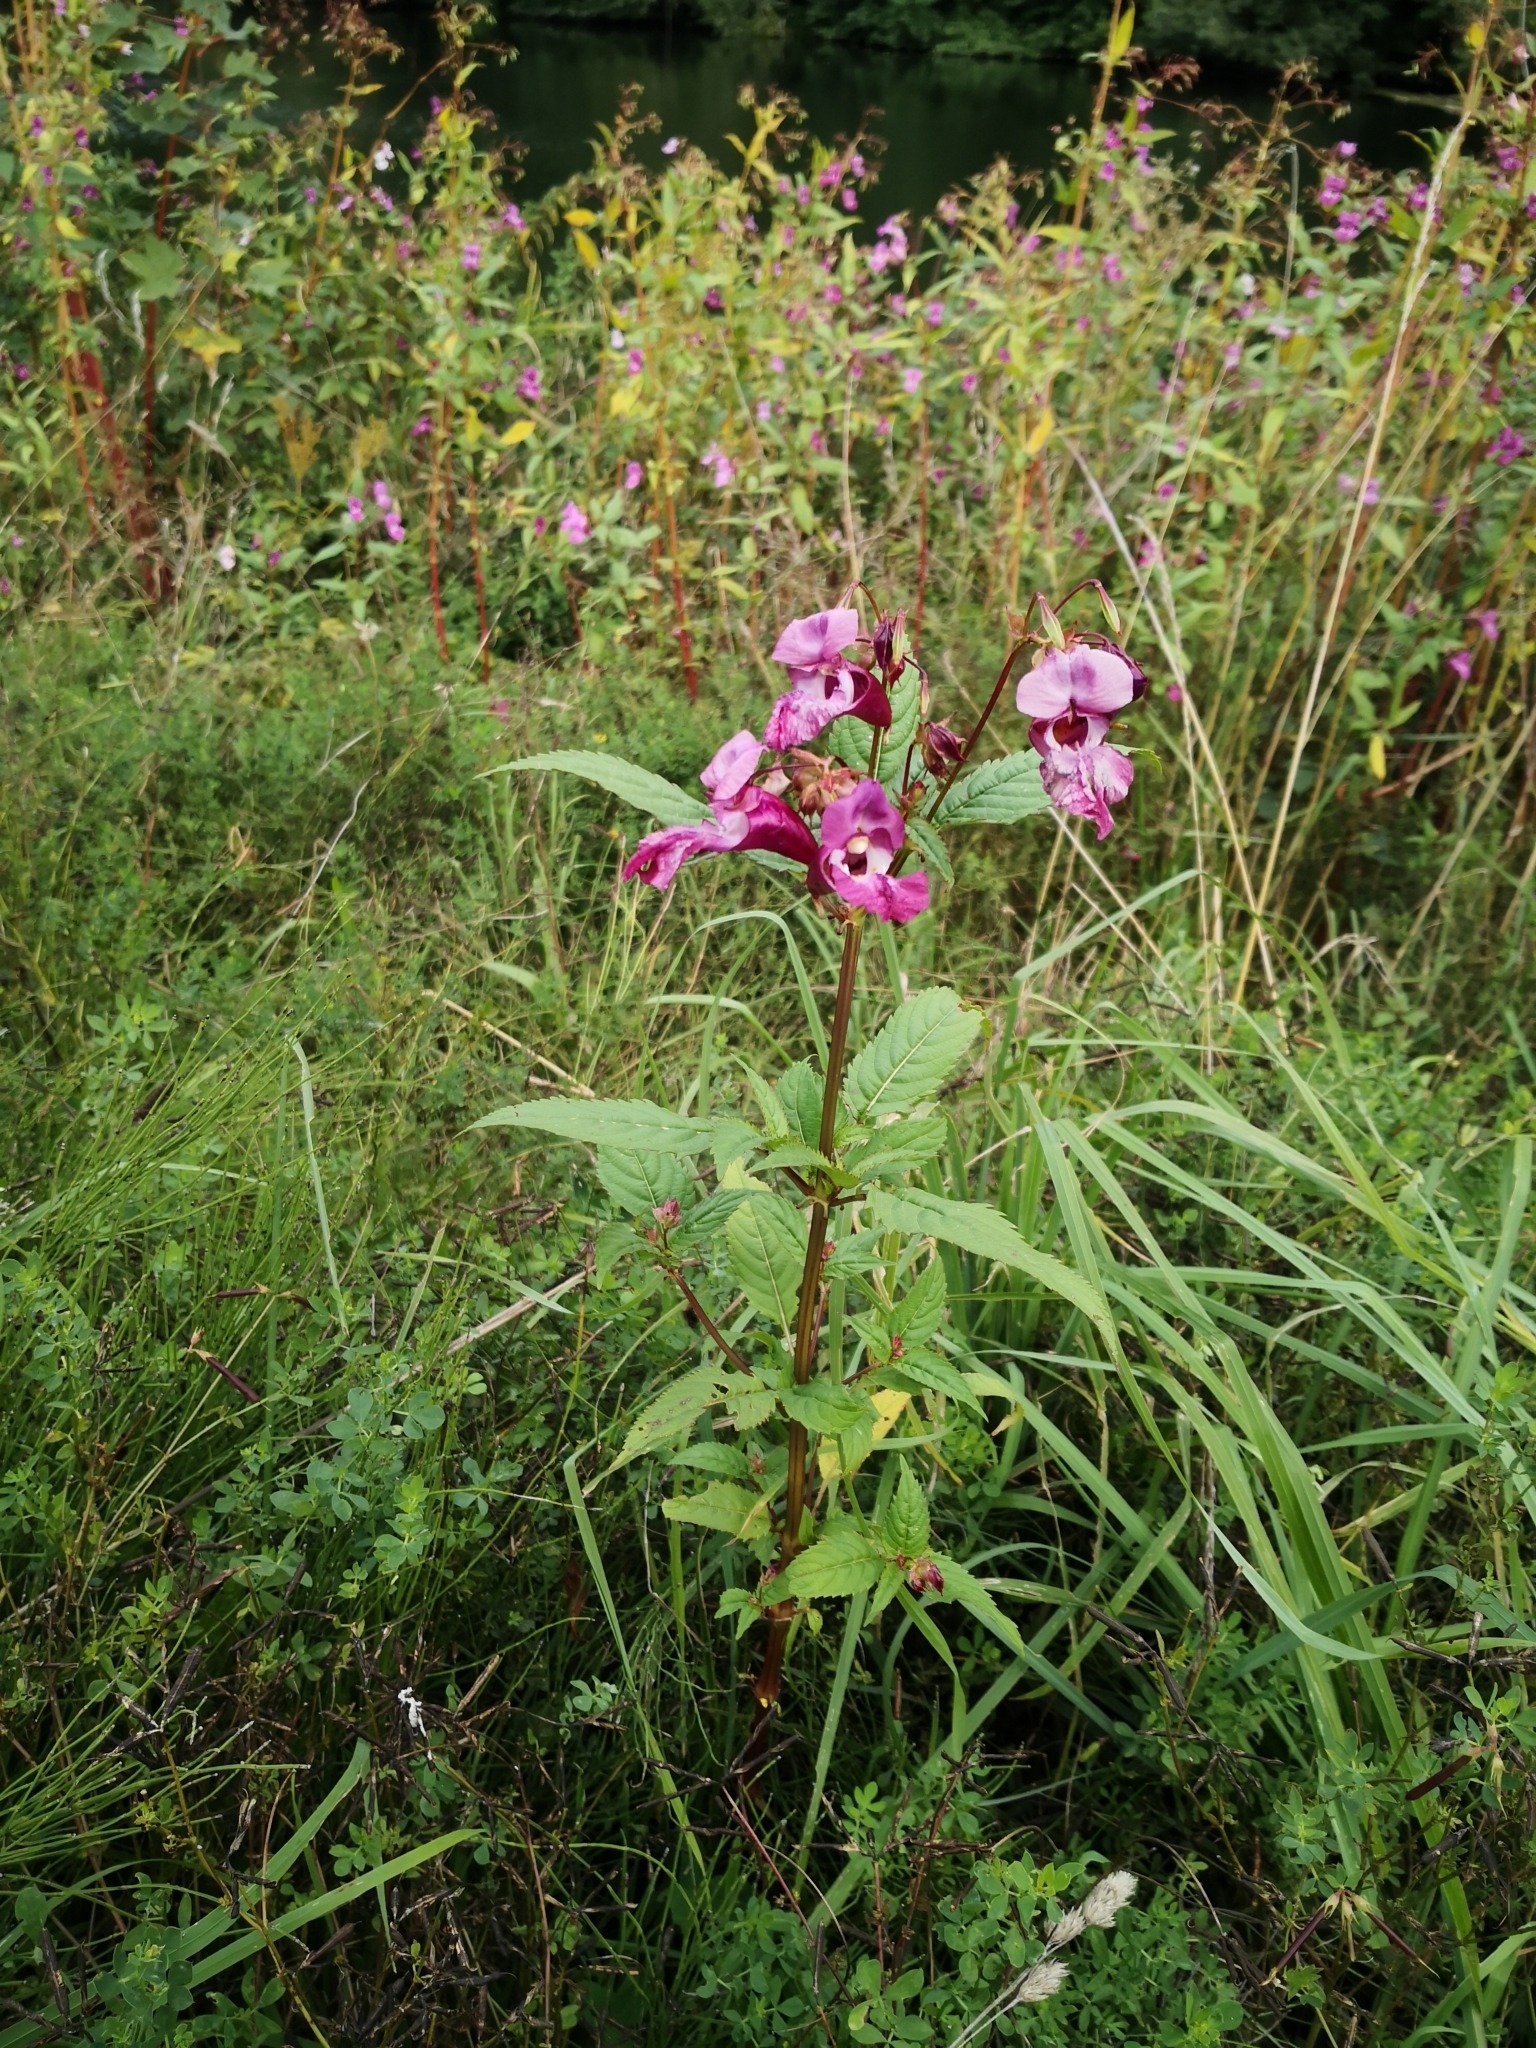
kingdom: Plantae
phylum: Tracheophyta
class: Magnoliopsida
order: Ericales
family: Balsaminaceae
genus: Impatiens
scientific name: Impatiens glandulifera
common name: Himalayan balsam
